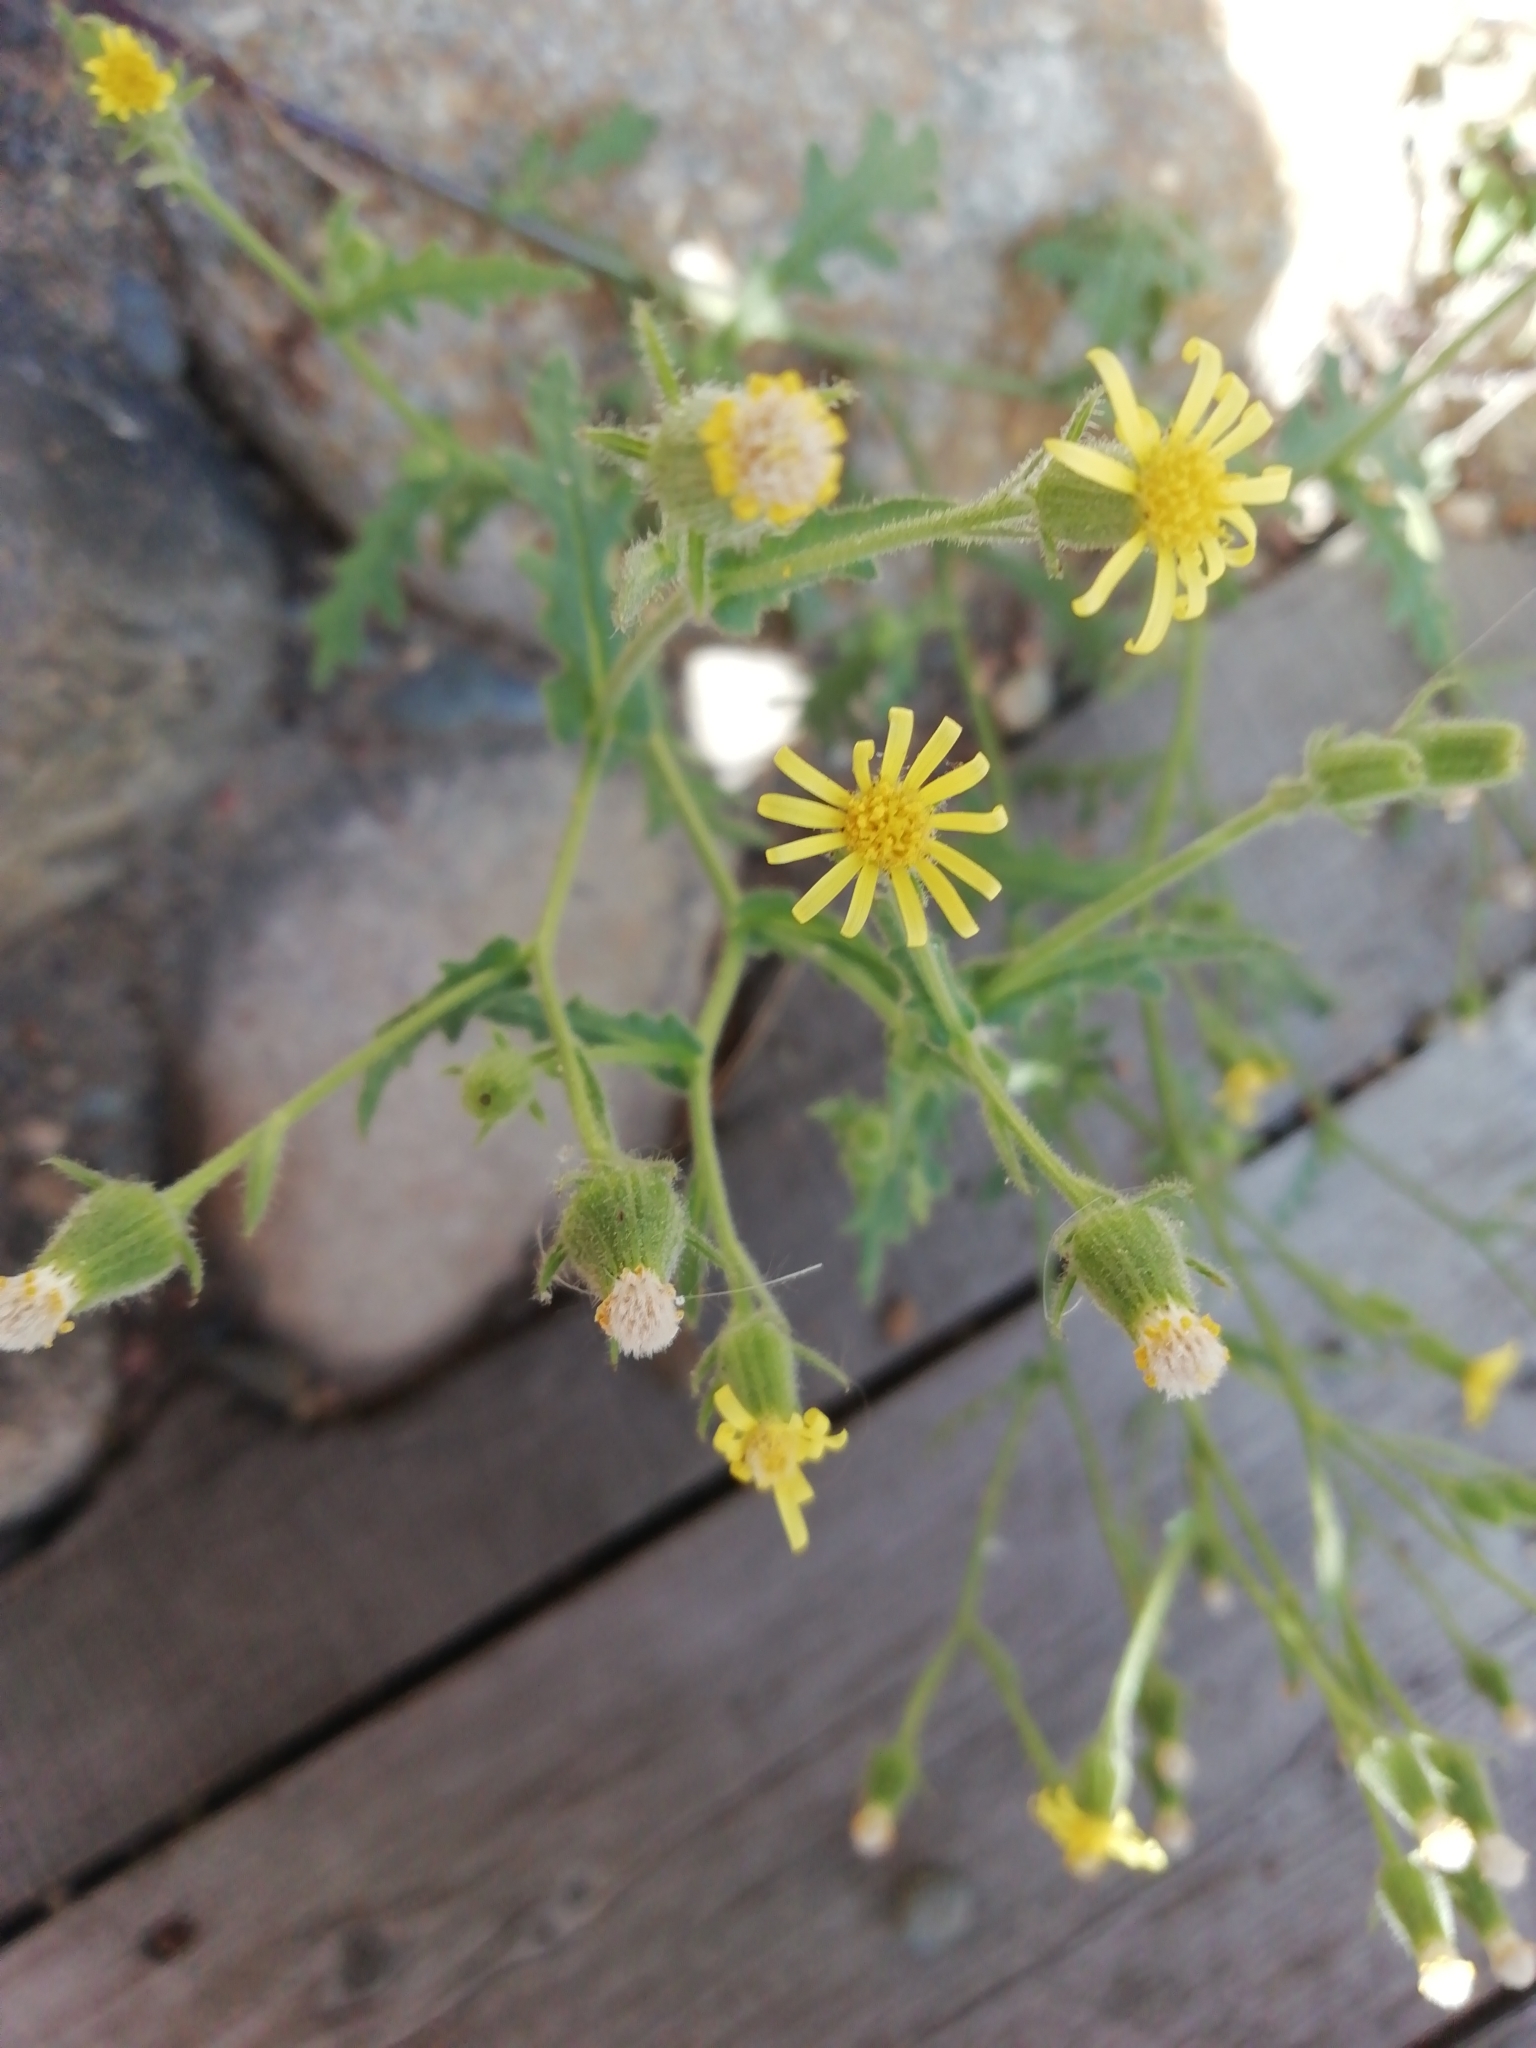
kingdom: Plantae
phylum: Tracheophyta
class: Magnoliopsida
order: Asterales
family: Asteraceae
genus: Senecio
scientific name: Senecio viscosus
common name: Sticky groundsel
